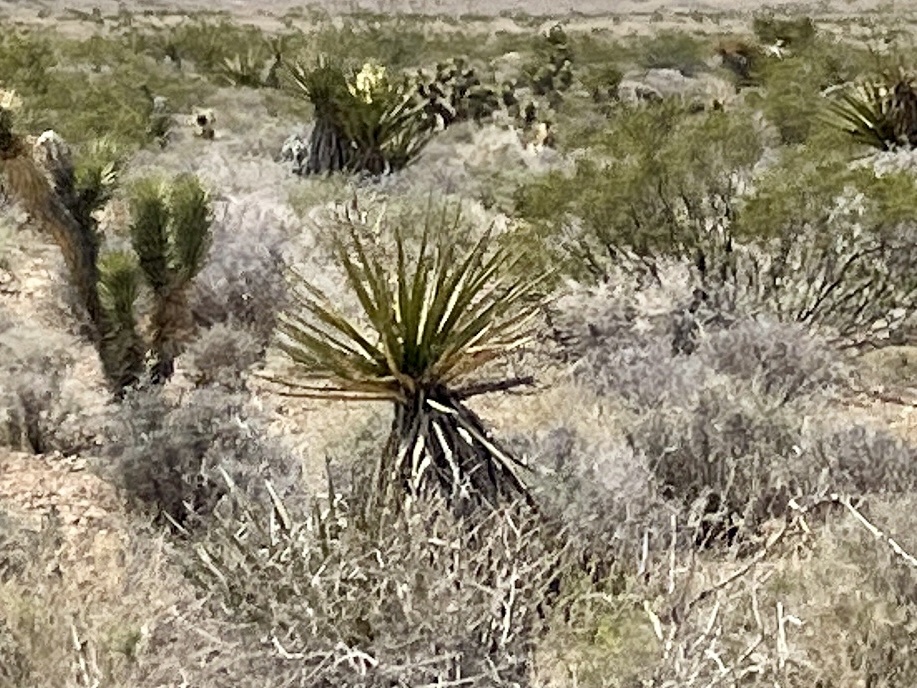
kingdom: Plantae
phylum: Tracheophyta
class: Liliopsida
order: Asparagales
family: Asparagaceae
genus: Yucca
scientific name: Yucca schidigera
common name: Mojave yucca
